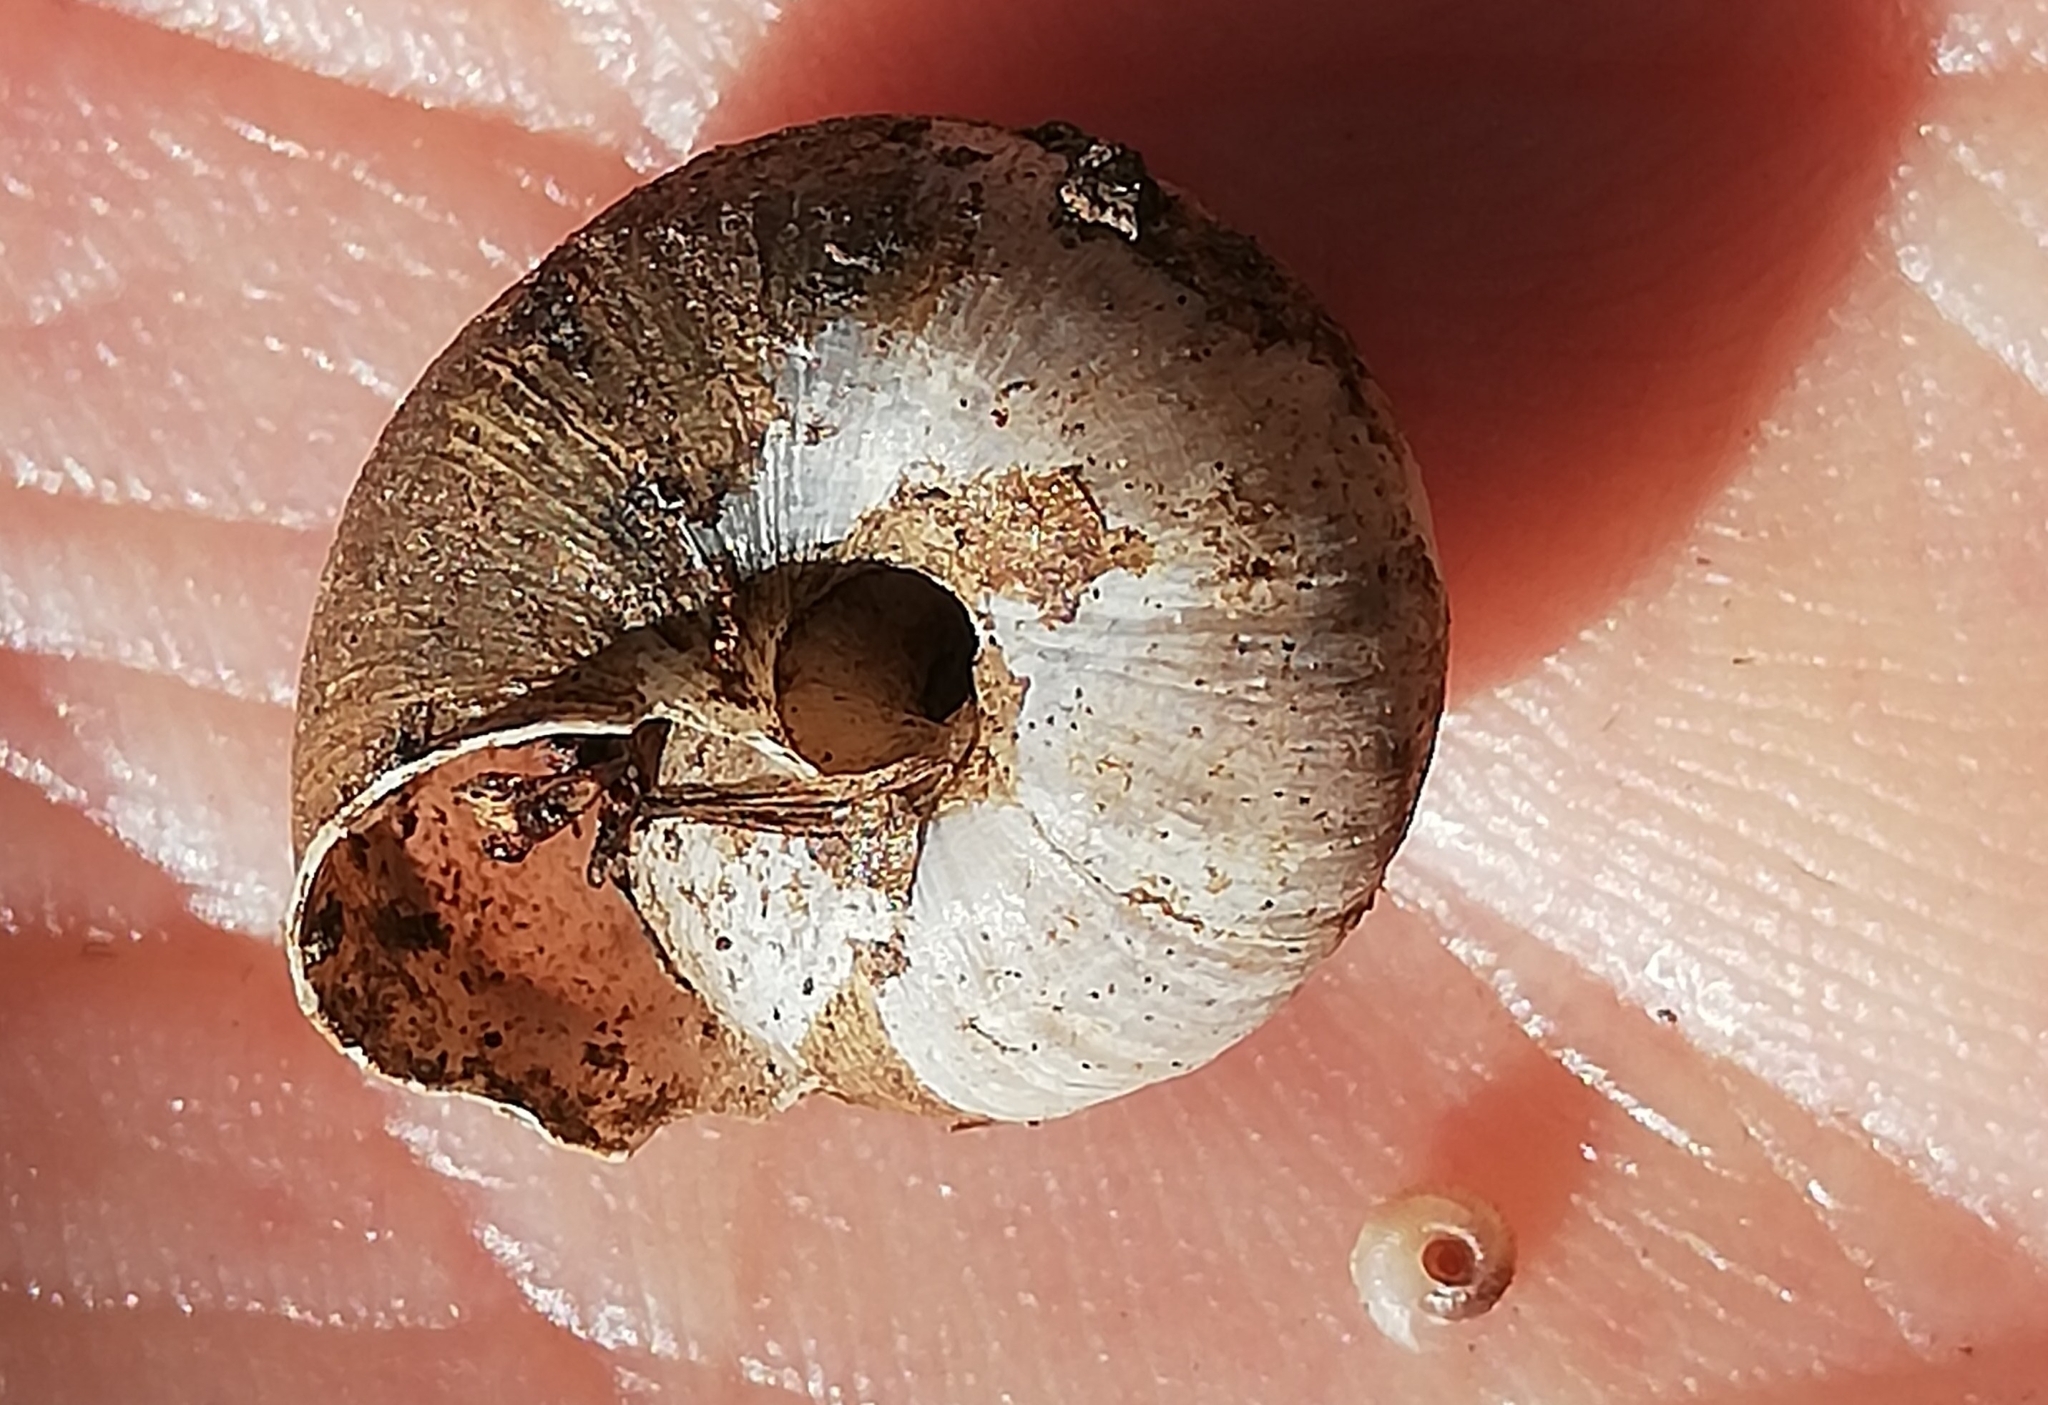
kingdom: Animalia
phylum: Mollusca
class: Gastropoda
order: Stylommatophora
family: Hygromiidae
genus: Euomphalia
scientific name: Euomphalia strigella
